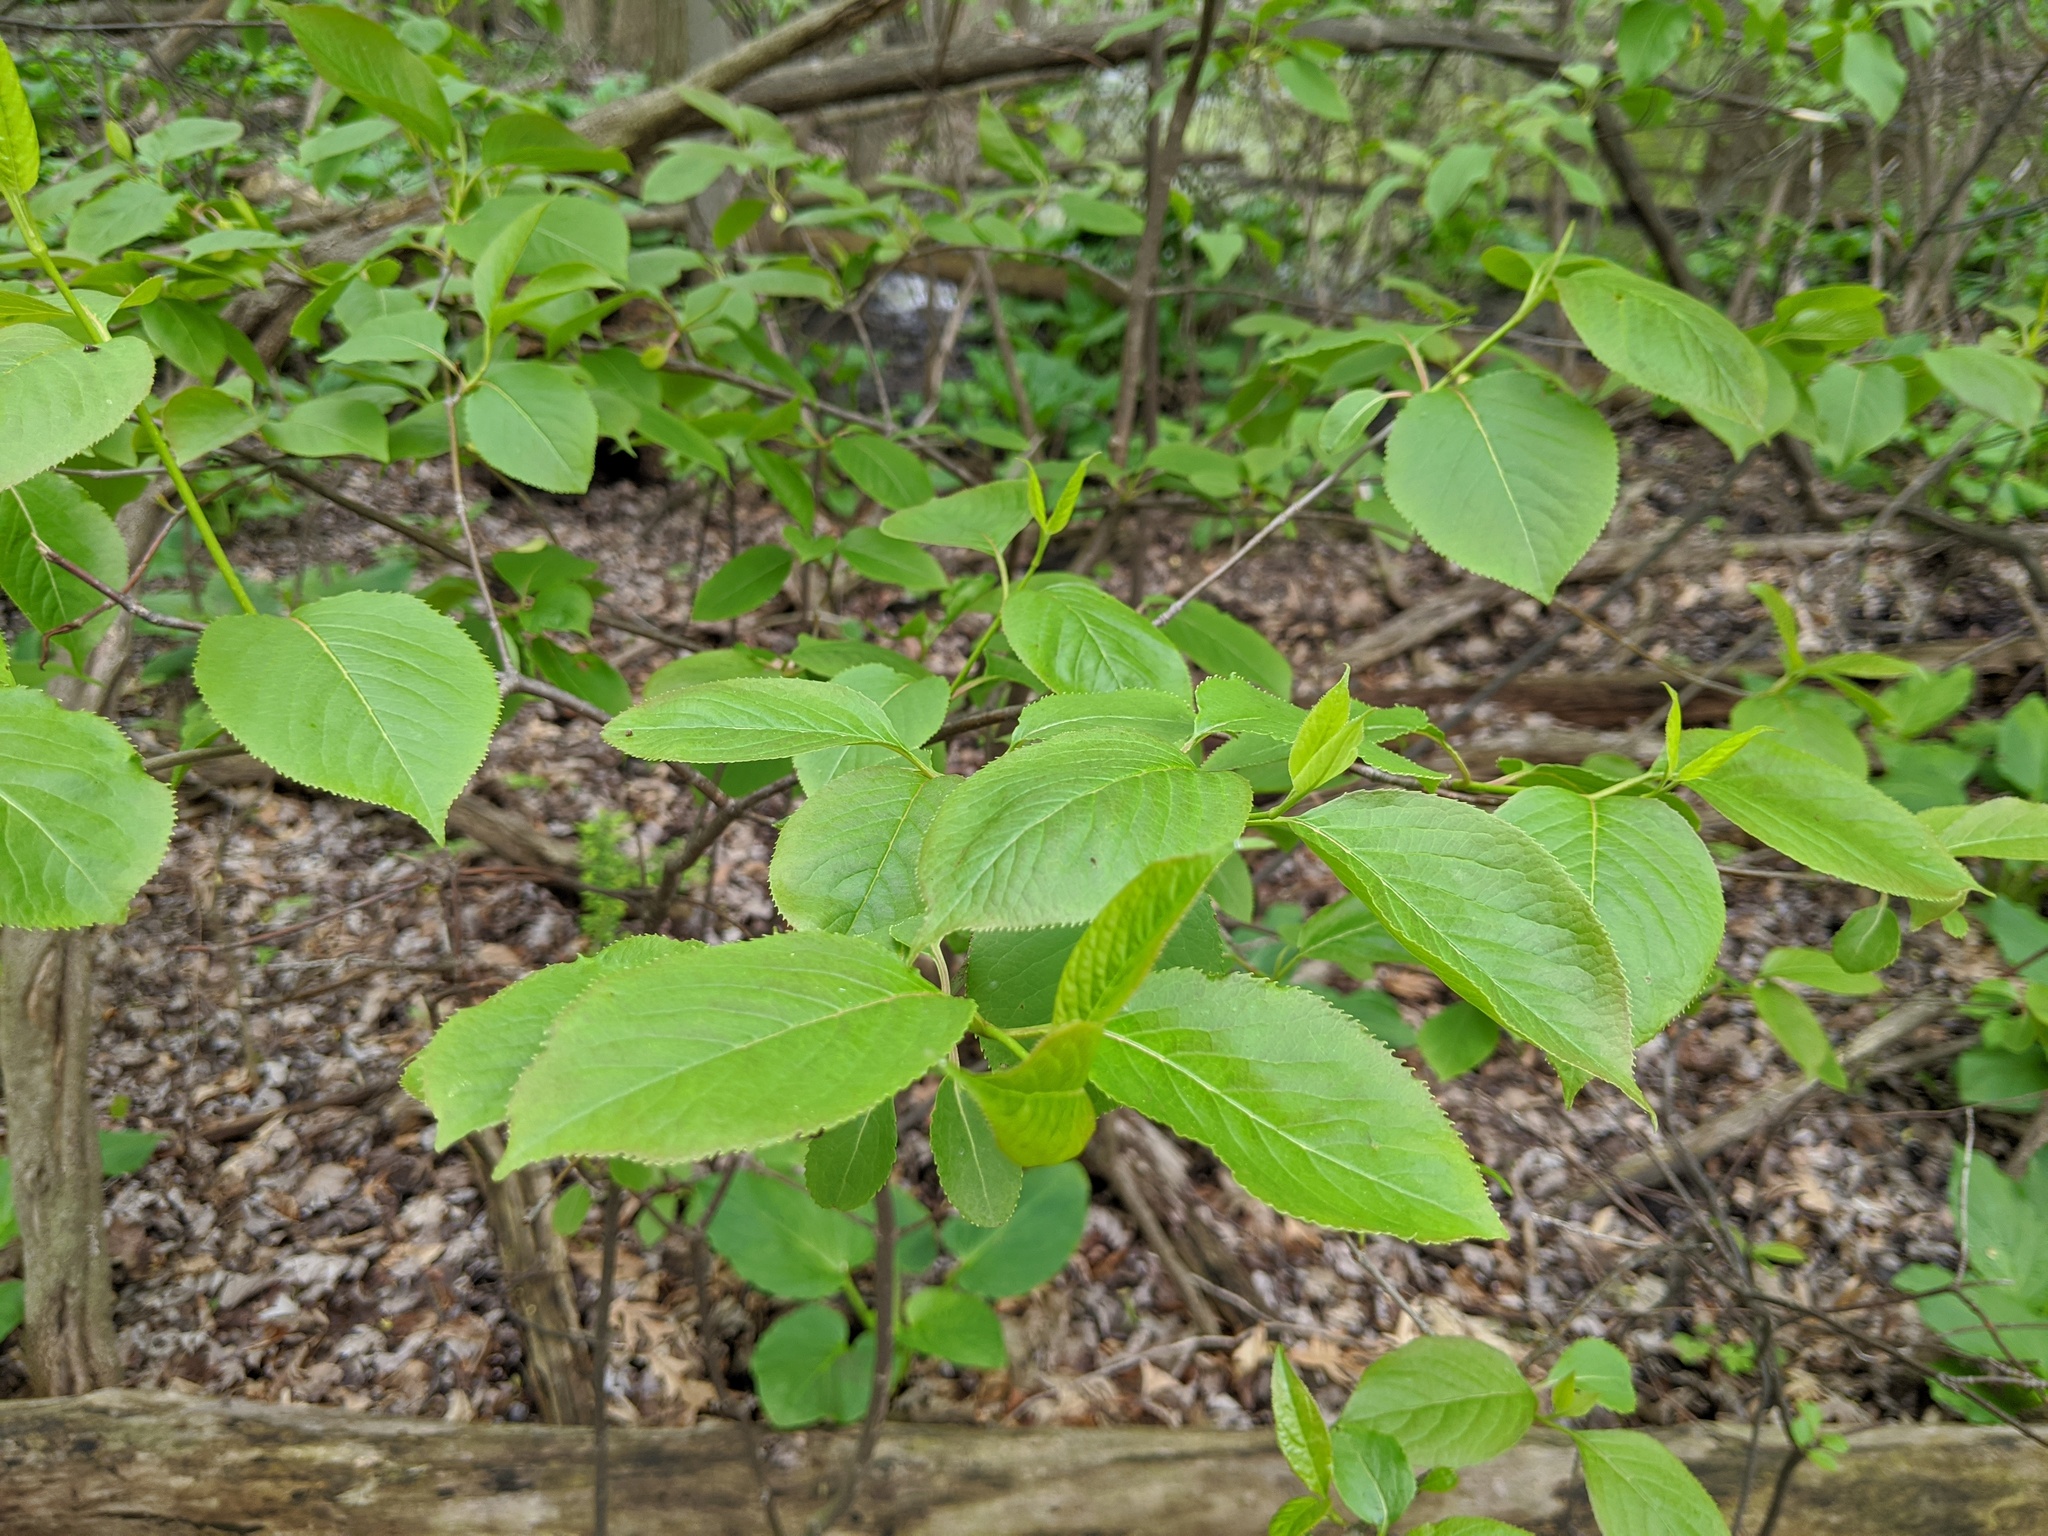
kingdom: Plantae
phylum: Tracheophyta
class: Magnoliopsida
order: Dipsacales
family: Viburnaceae
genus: Viburnum
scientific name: Viburnum lentago
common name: Black haw
